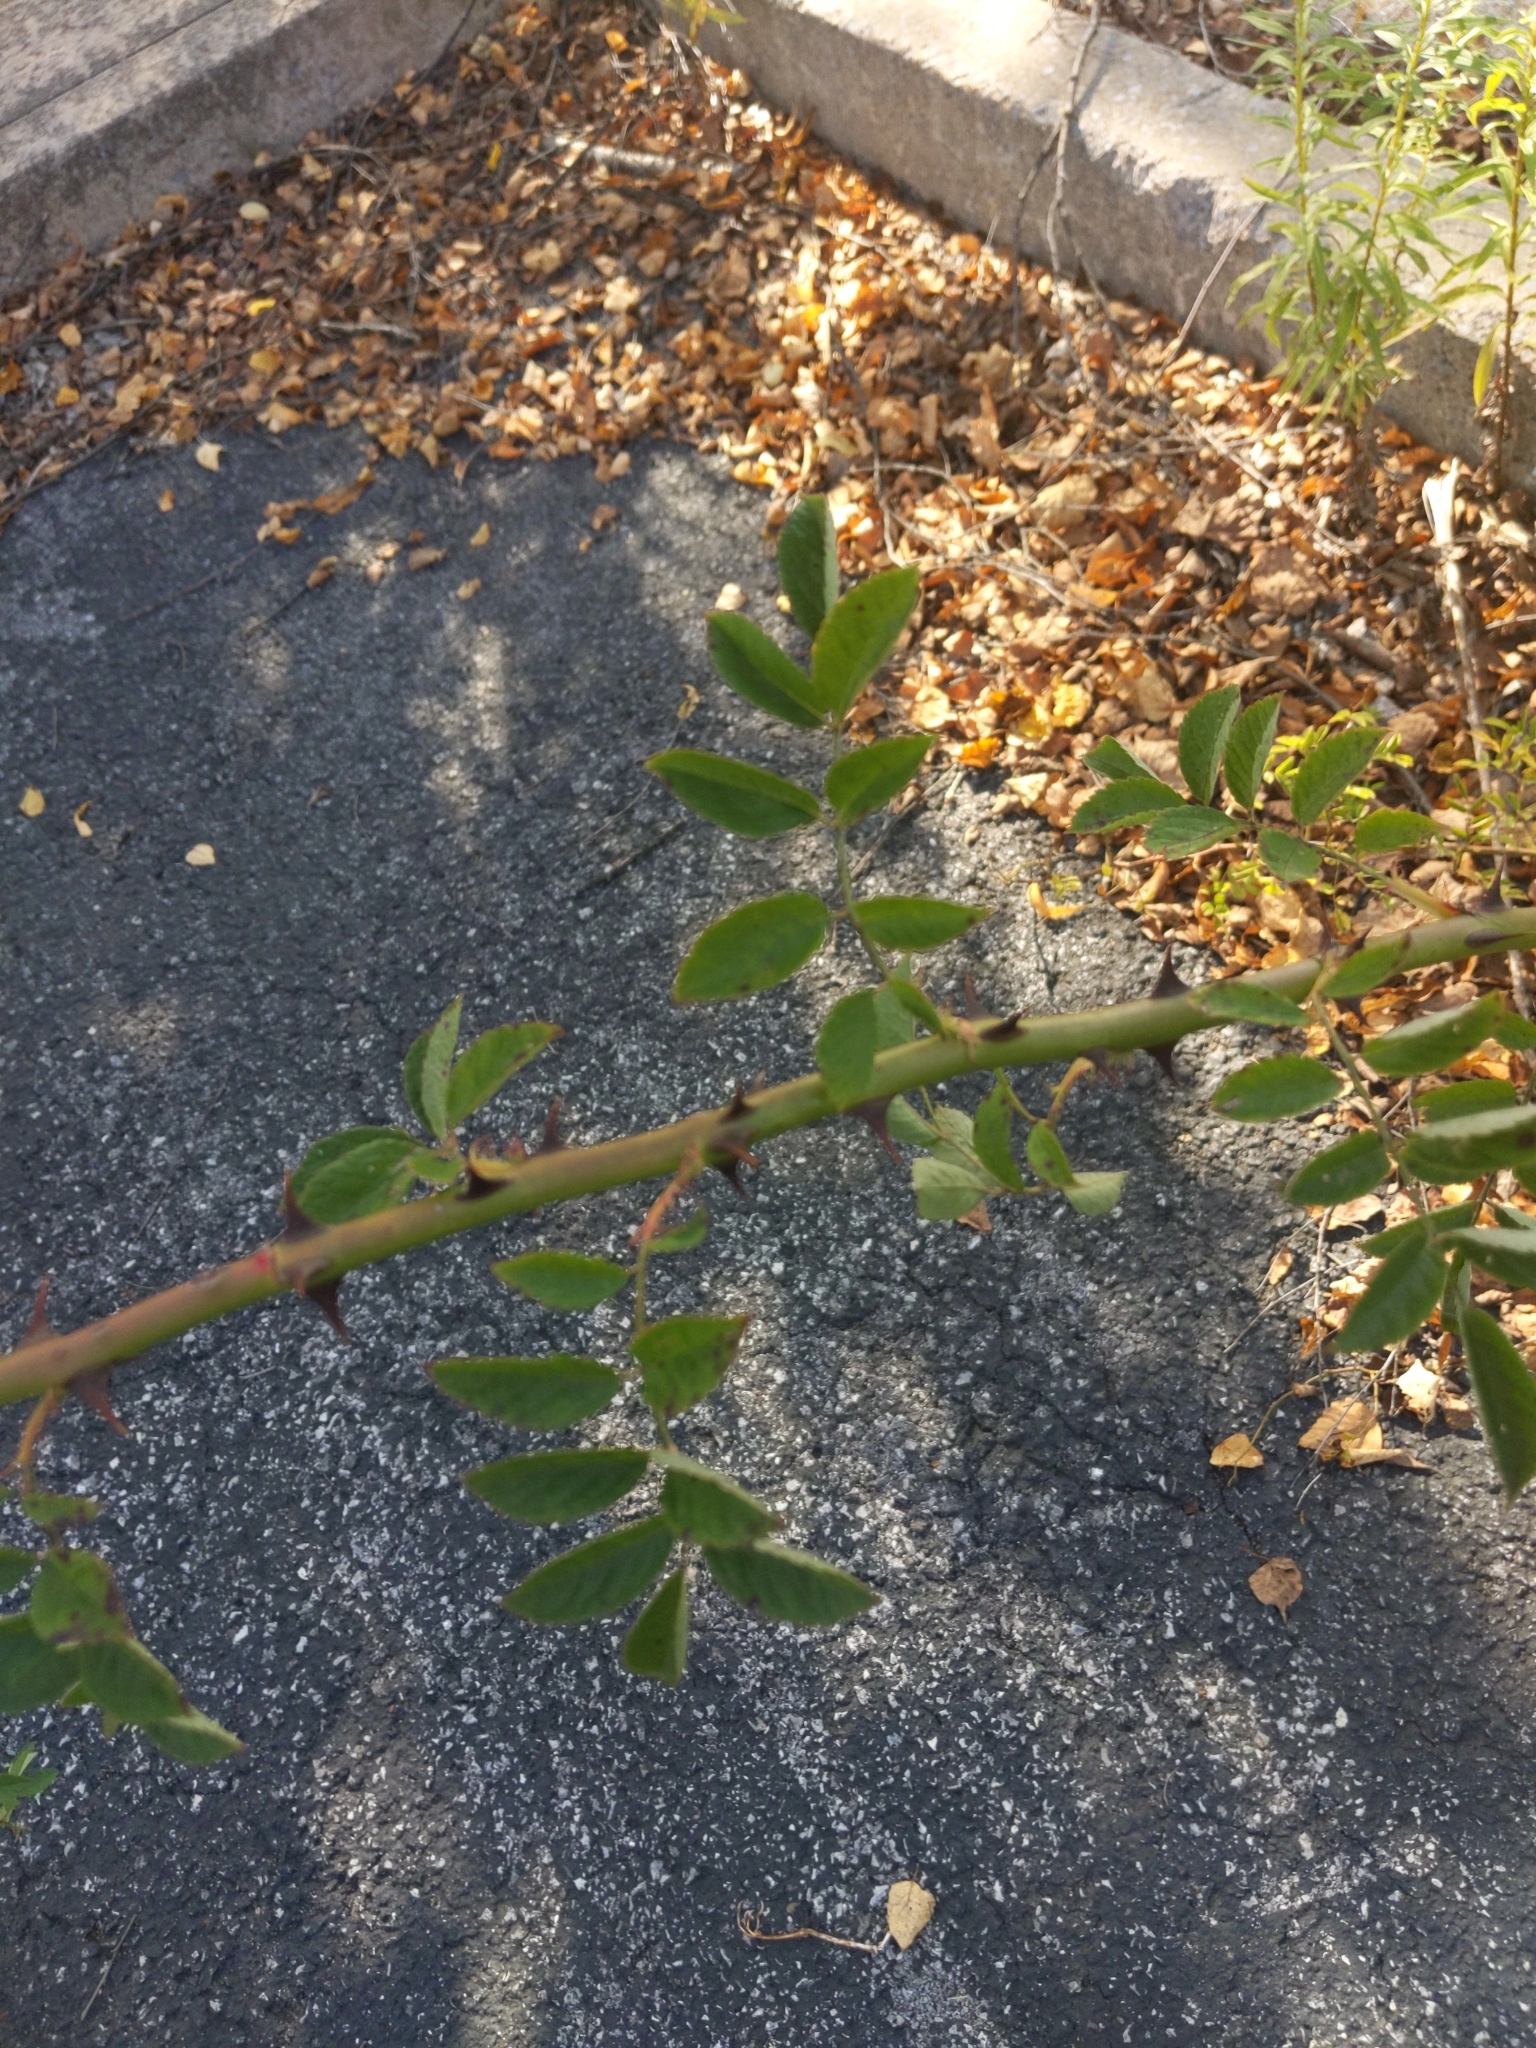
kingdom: Plantae
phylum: Tracheophyta
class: Magnoliopsida
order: Rosales
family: Rosaceae
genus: Rosa
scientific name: Rosa multiflora
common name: Multiflora rose
